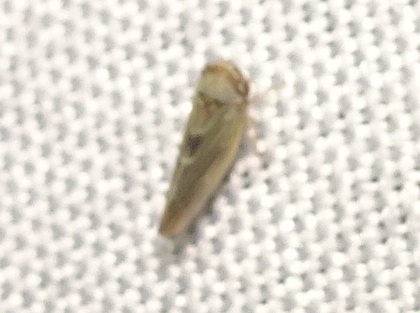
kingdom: Animalia
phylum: Arthropoda
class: Insecta
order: Hemiptera
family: Cicadellidae
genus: Agalliopsis
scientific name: Agalliopsis ancistra
